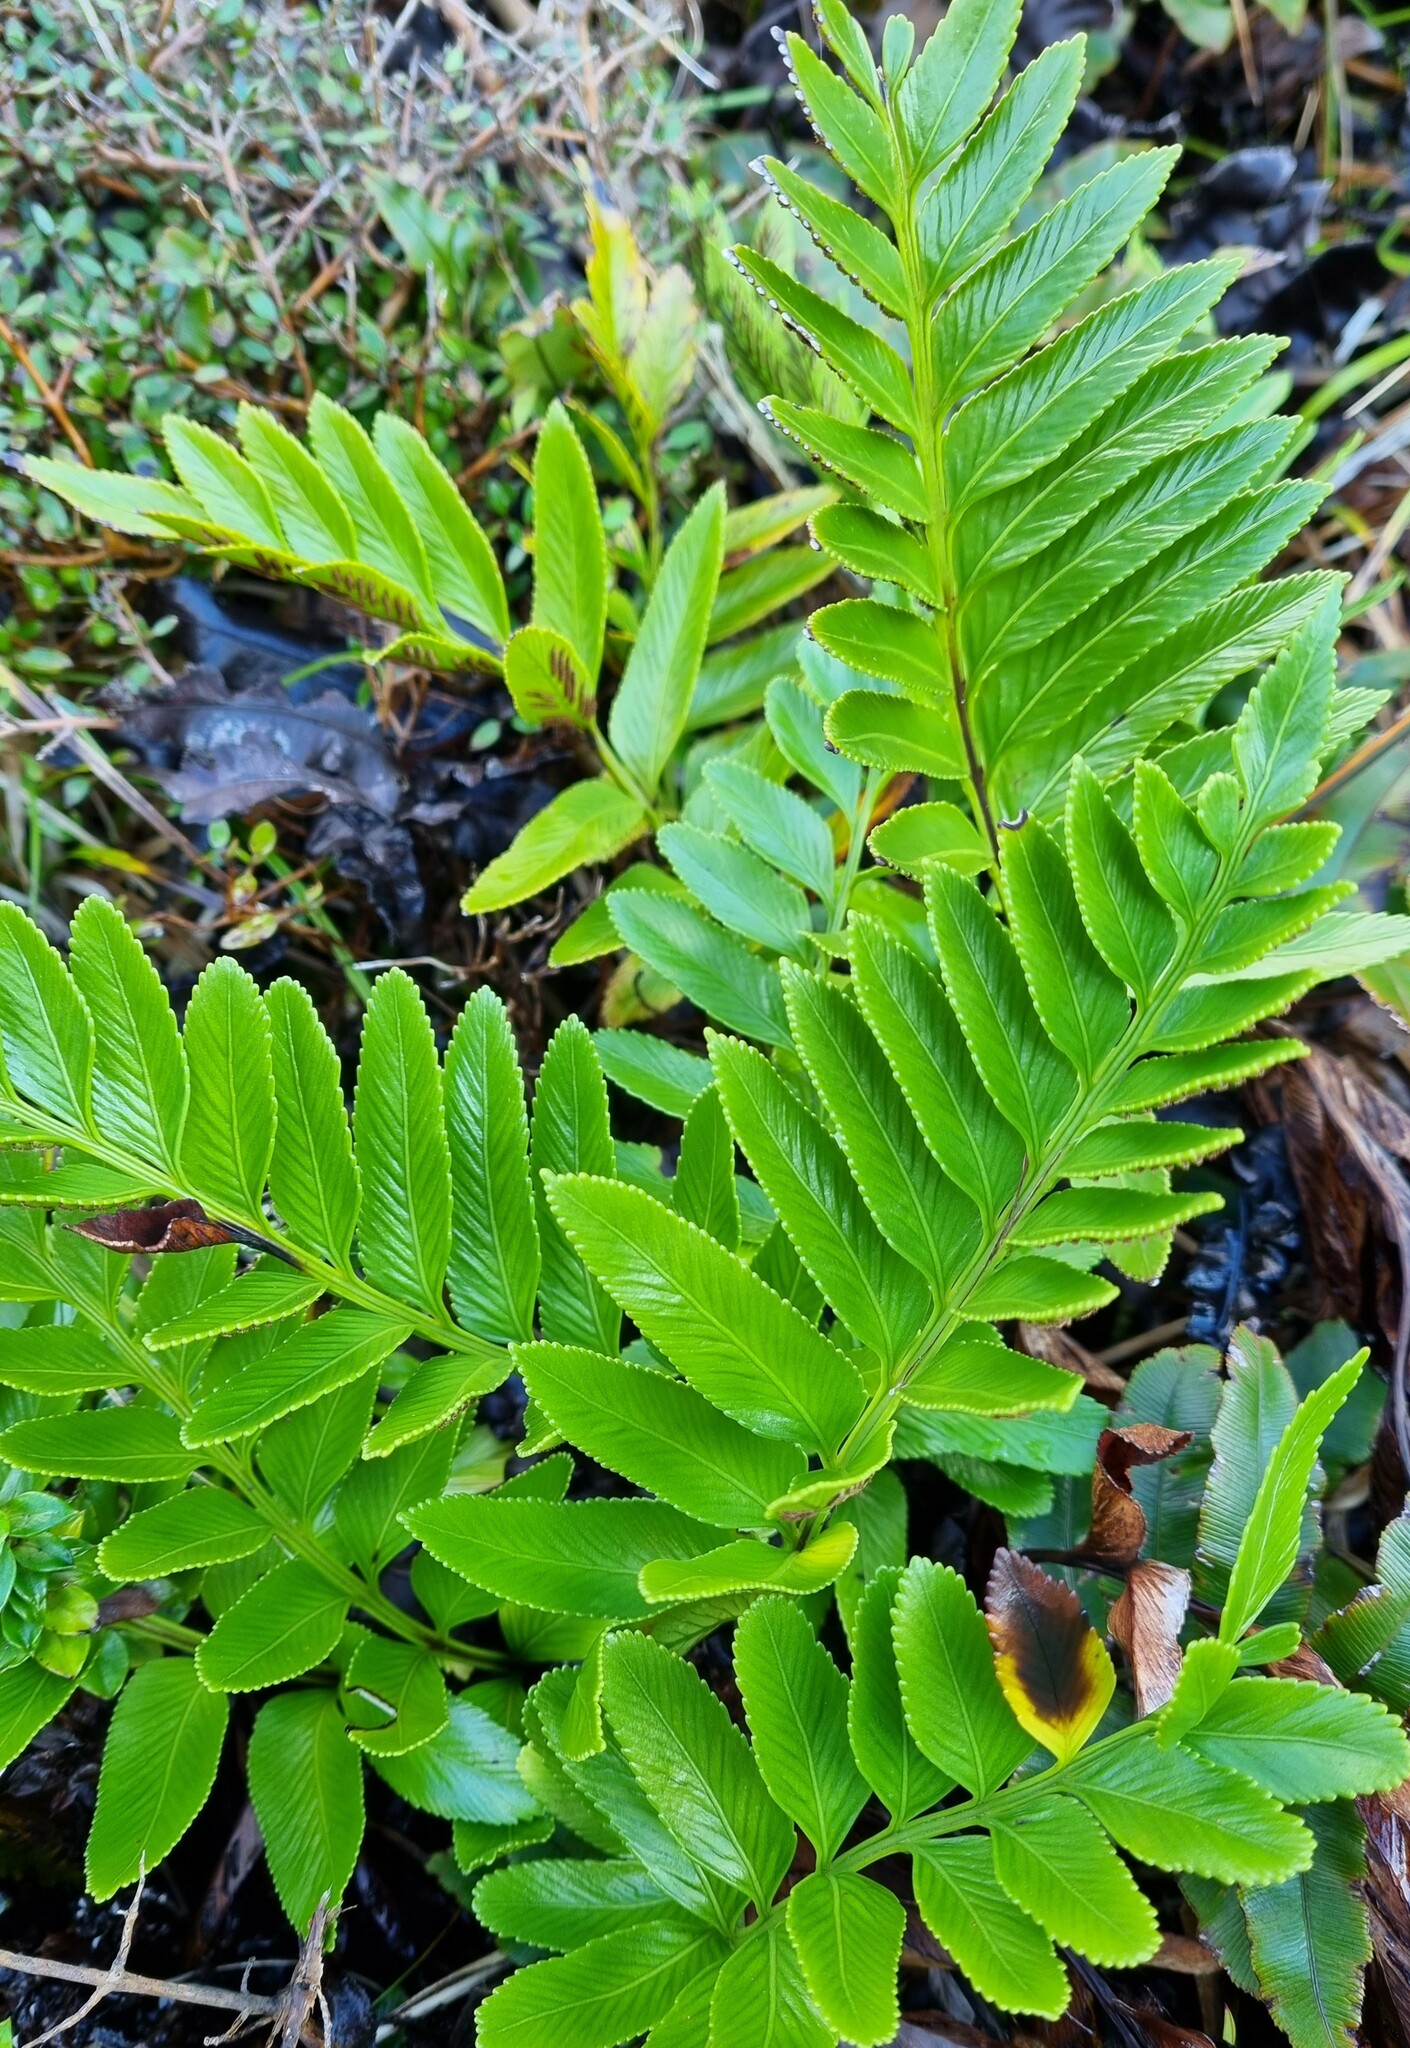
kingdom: Plantae
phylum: Tracheophyta
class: Polypodiopsida
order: Polypodiales
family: Aspleniaceae
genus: Asplenium
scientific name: Asplenium obtusatum
